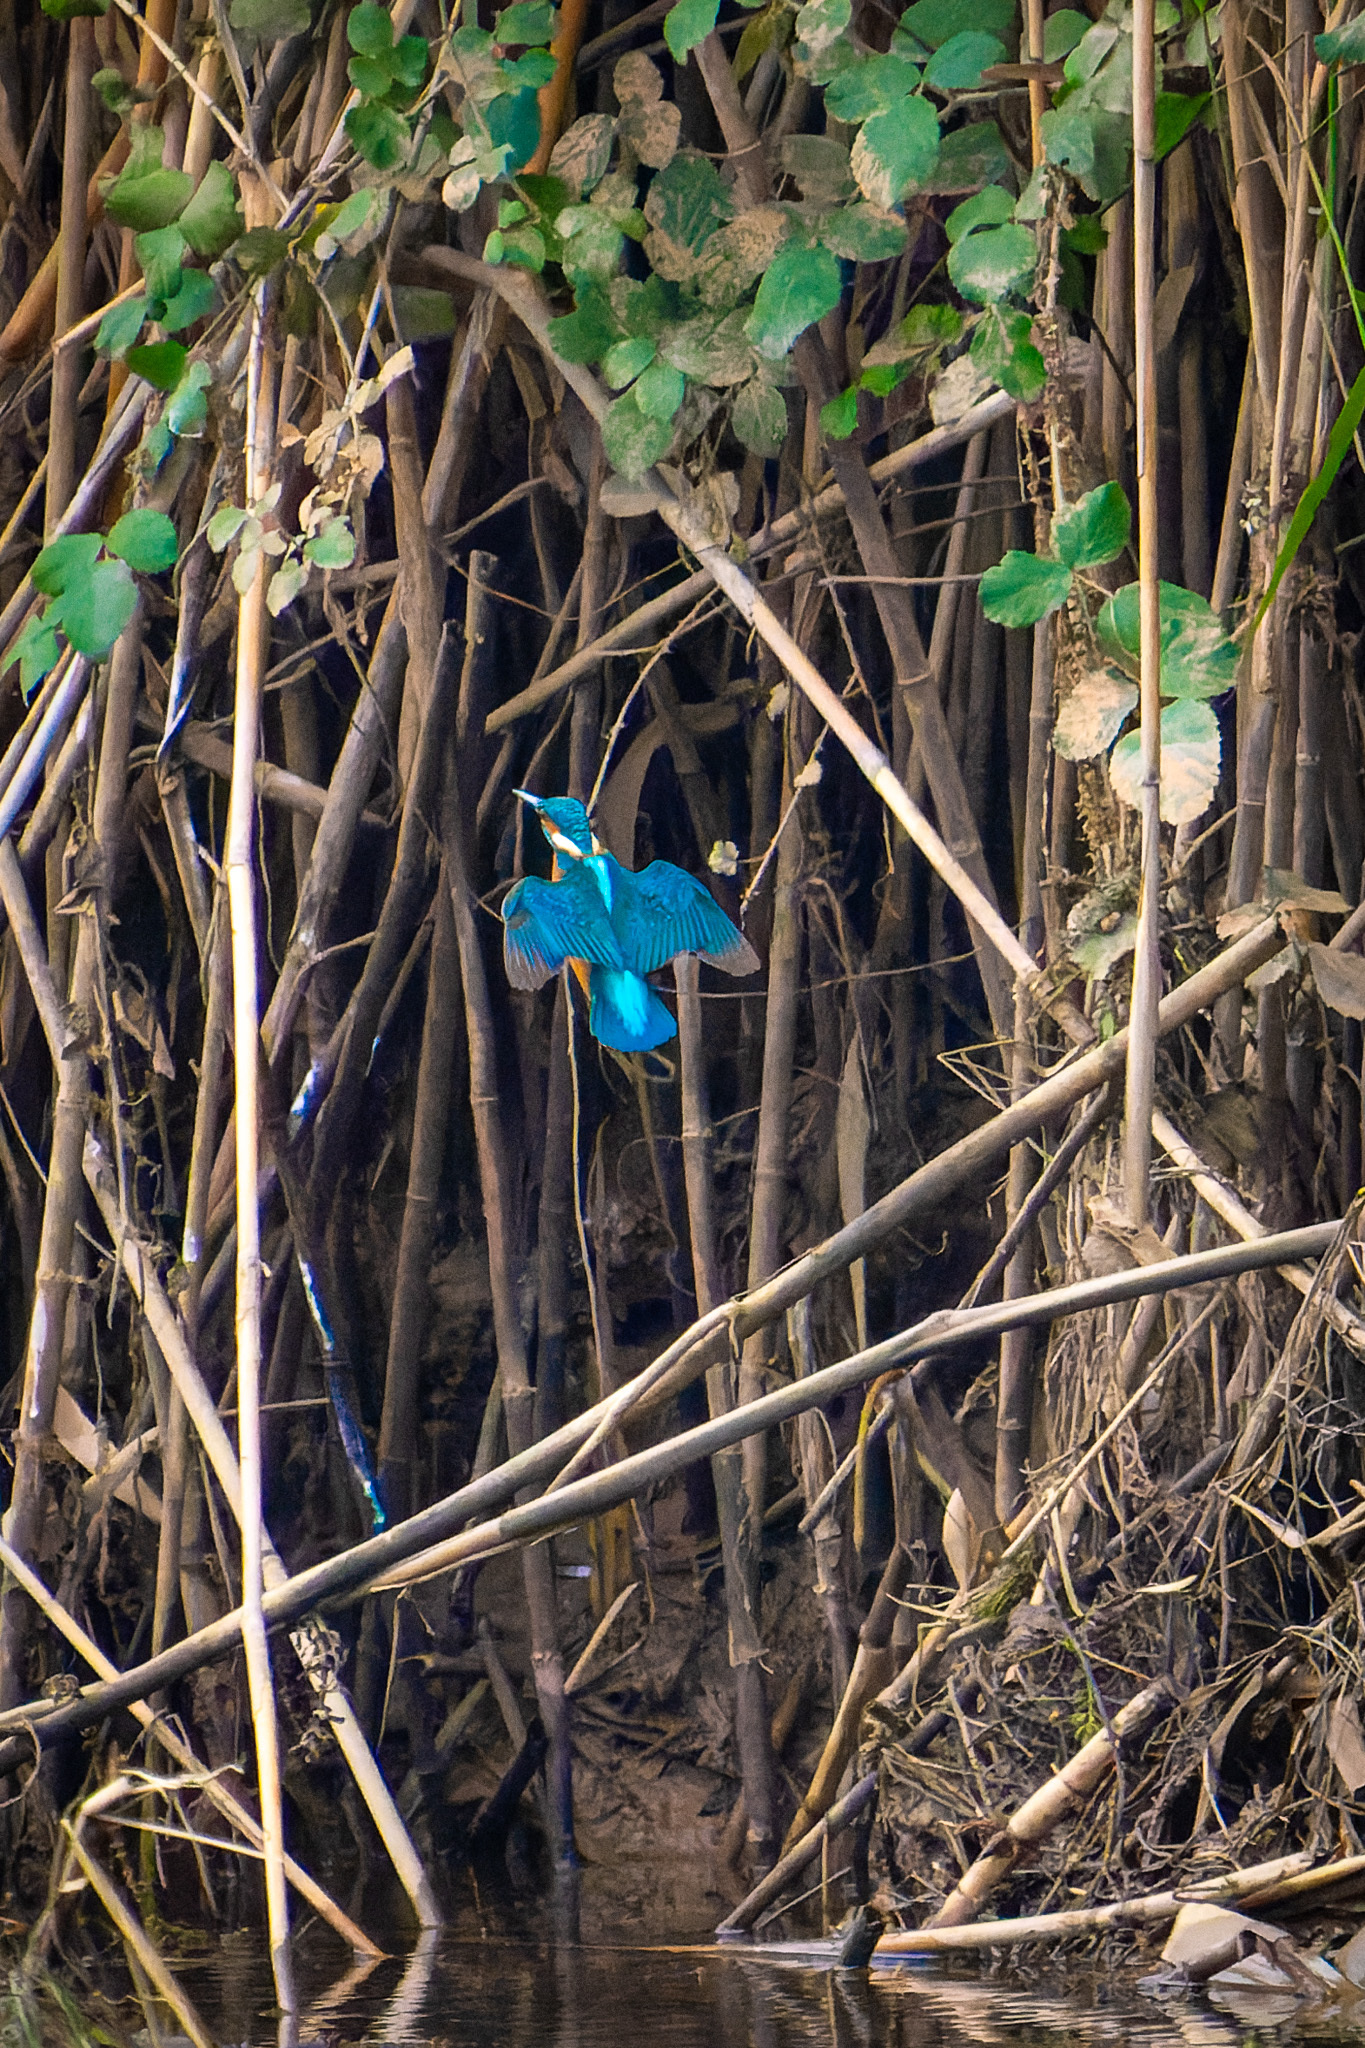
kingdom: Animalia
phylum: Chordata
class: Aves
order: Coraciiformes
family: Alcedinidae
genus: Alcedo
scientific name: Alcedo atthis
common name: Common kingfisher
